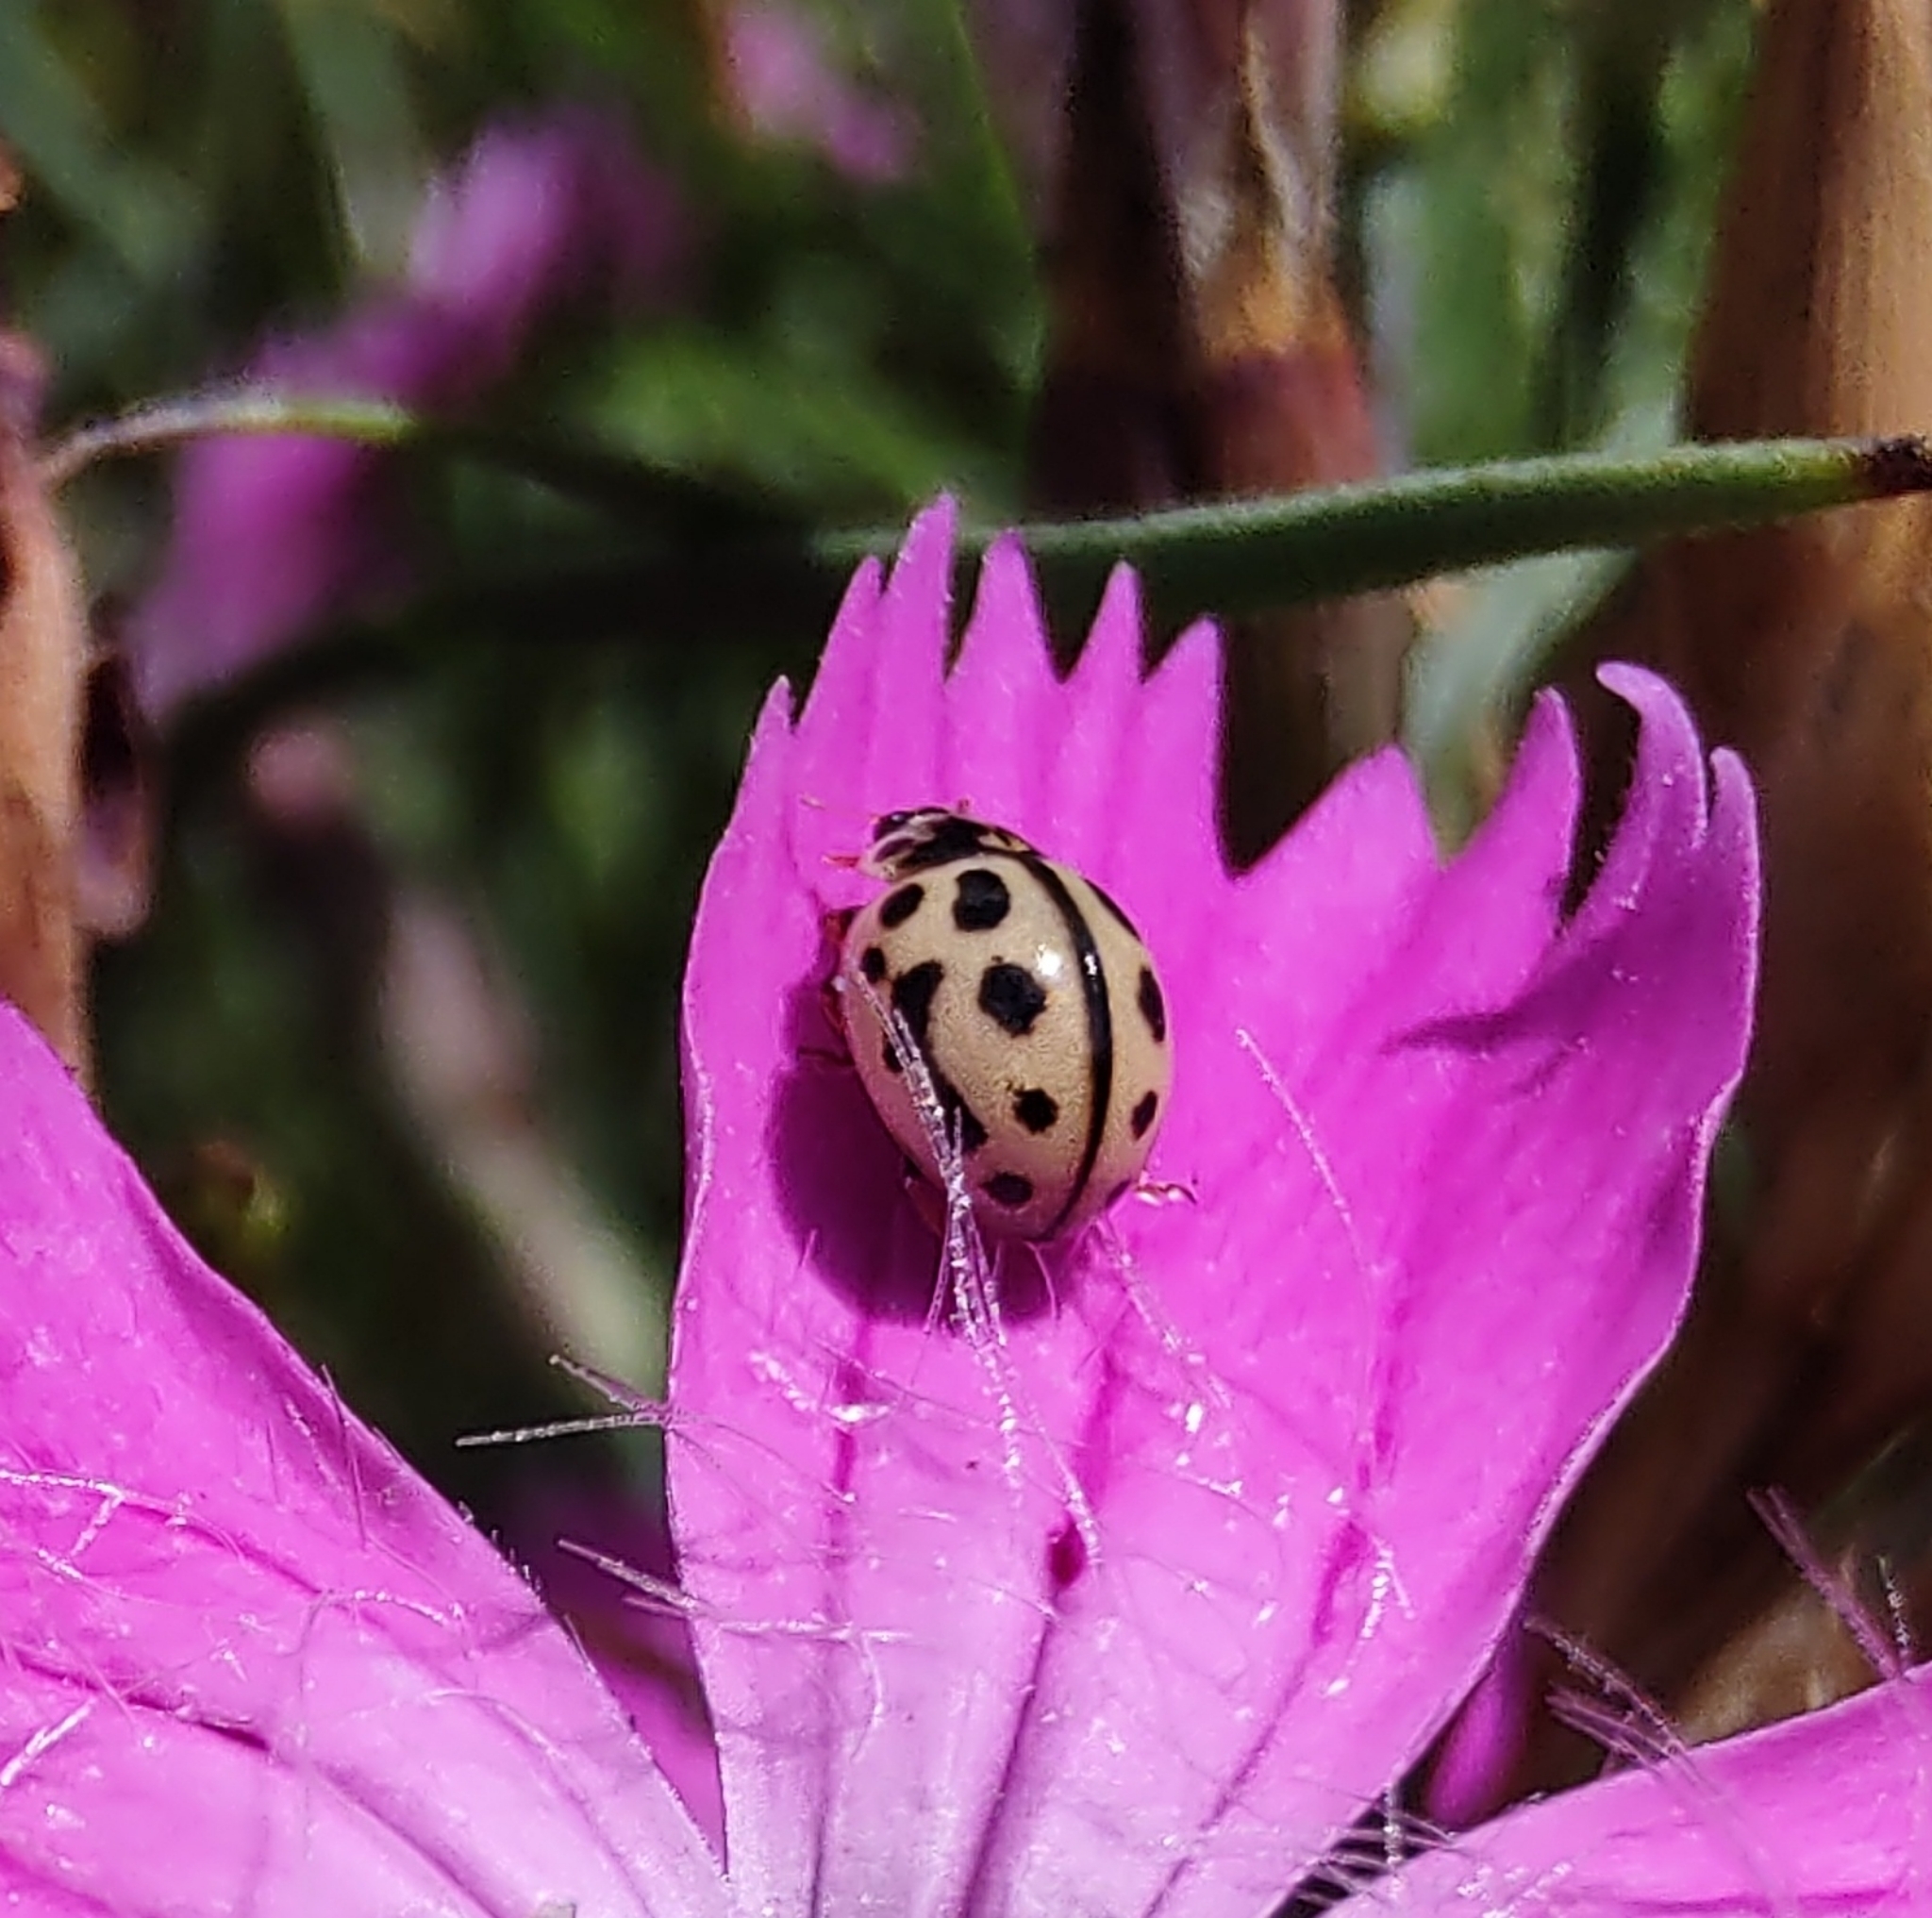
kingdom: Animalia
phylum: Arthropoda
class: Insecta
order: Coleoptera
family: Coccinellidae
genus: Tytthaspis
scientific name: Tytthaspis sedecimpunctata
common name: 16-spot ladybird
